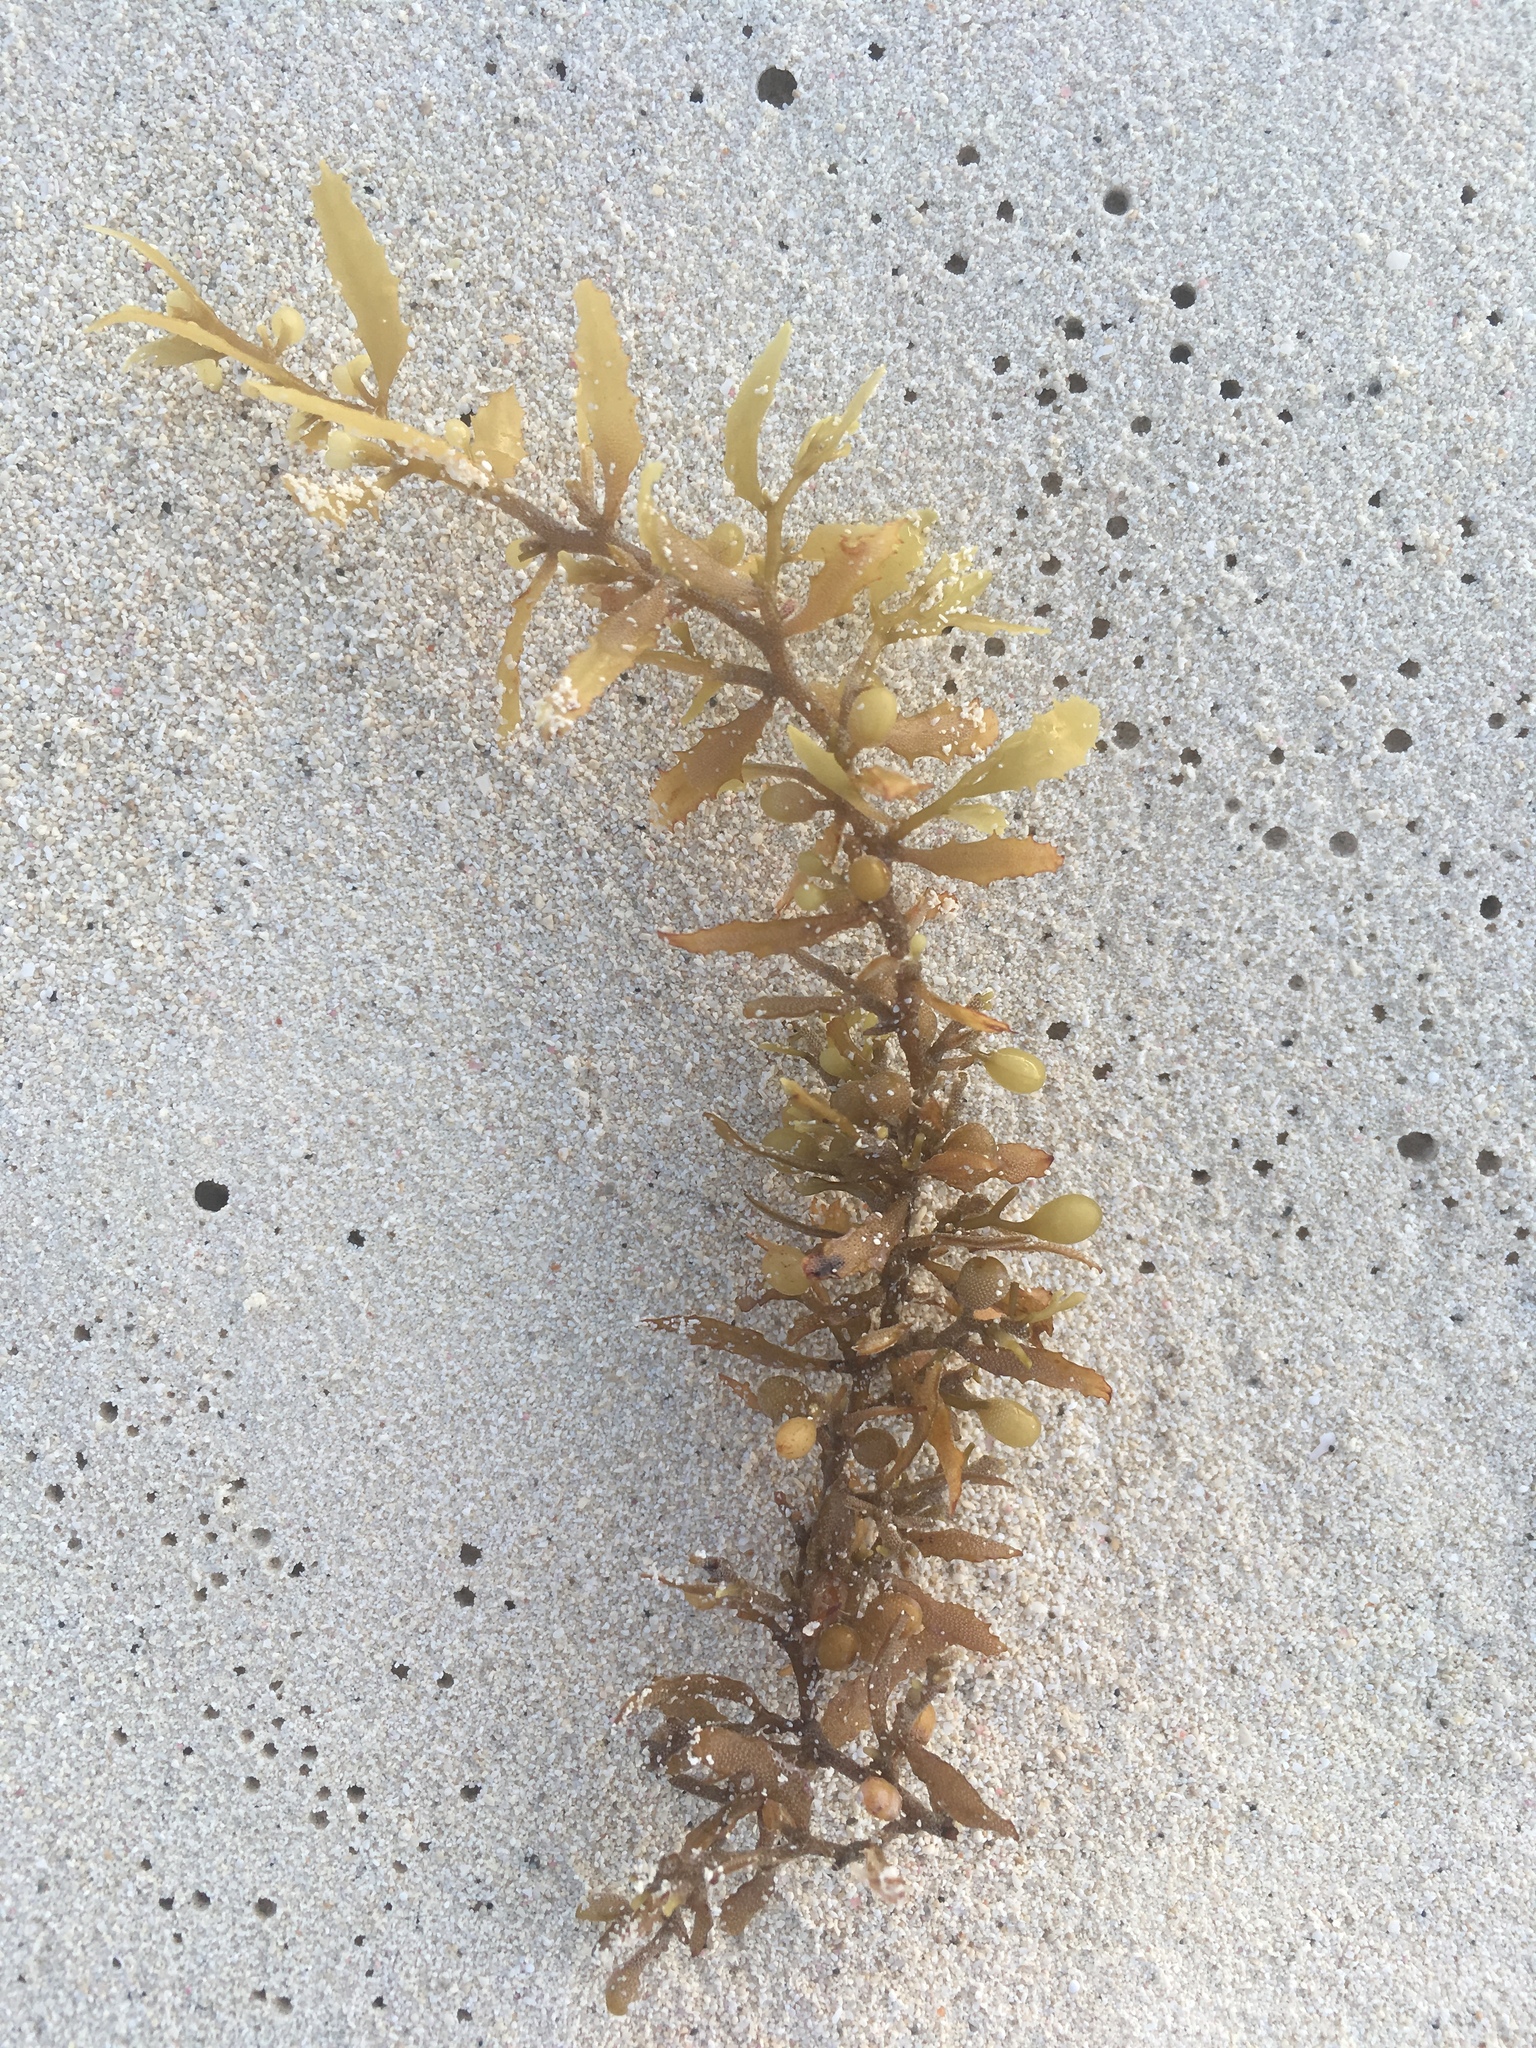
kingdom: Chromista
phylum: Ochrophyta
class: Phaeophyceae
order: Fucales
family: Sargassaceae
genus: Sargassum
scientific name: Sargassum fluitans
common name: Sargassum seaweed
